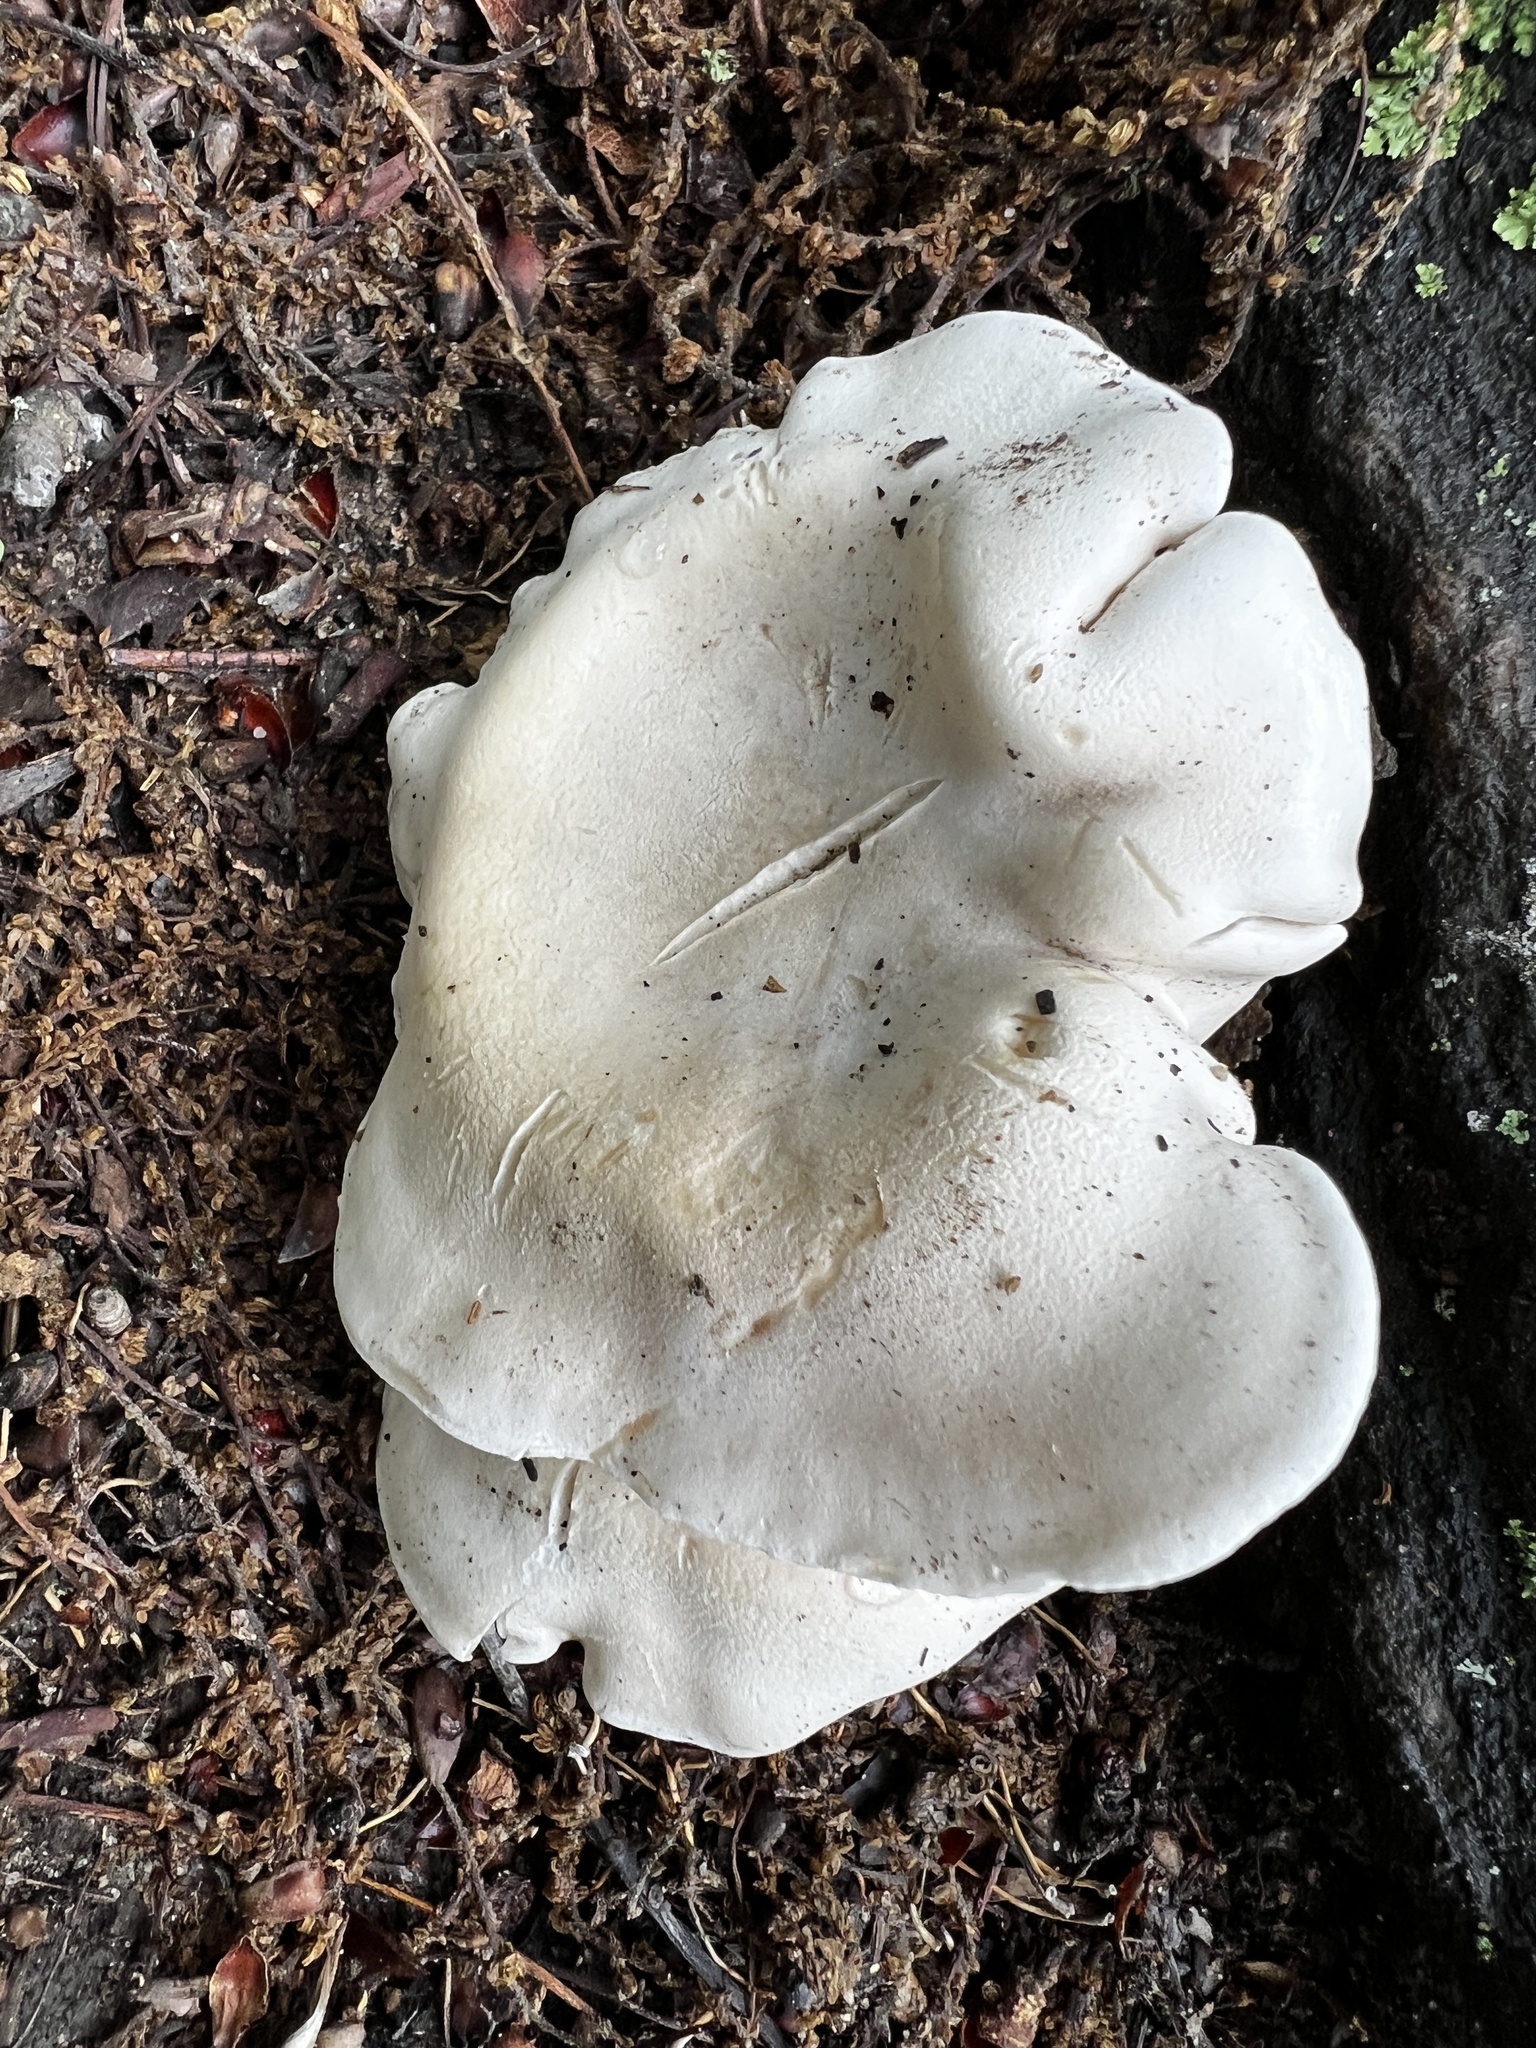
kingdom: Fungi
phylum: Basidiomycota
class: Agaricomycetes
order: Agaricales
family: Entolomataceae
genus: Clitopilus
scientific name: Clitopilus prunulus
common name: The miller
